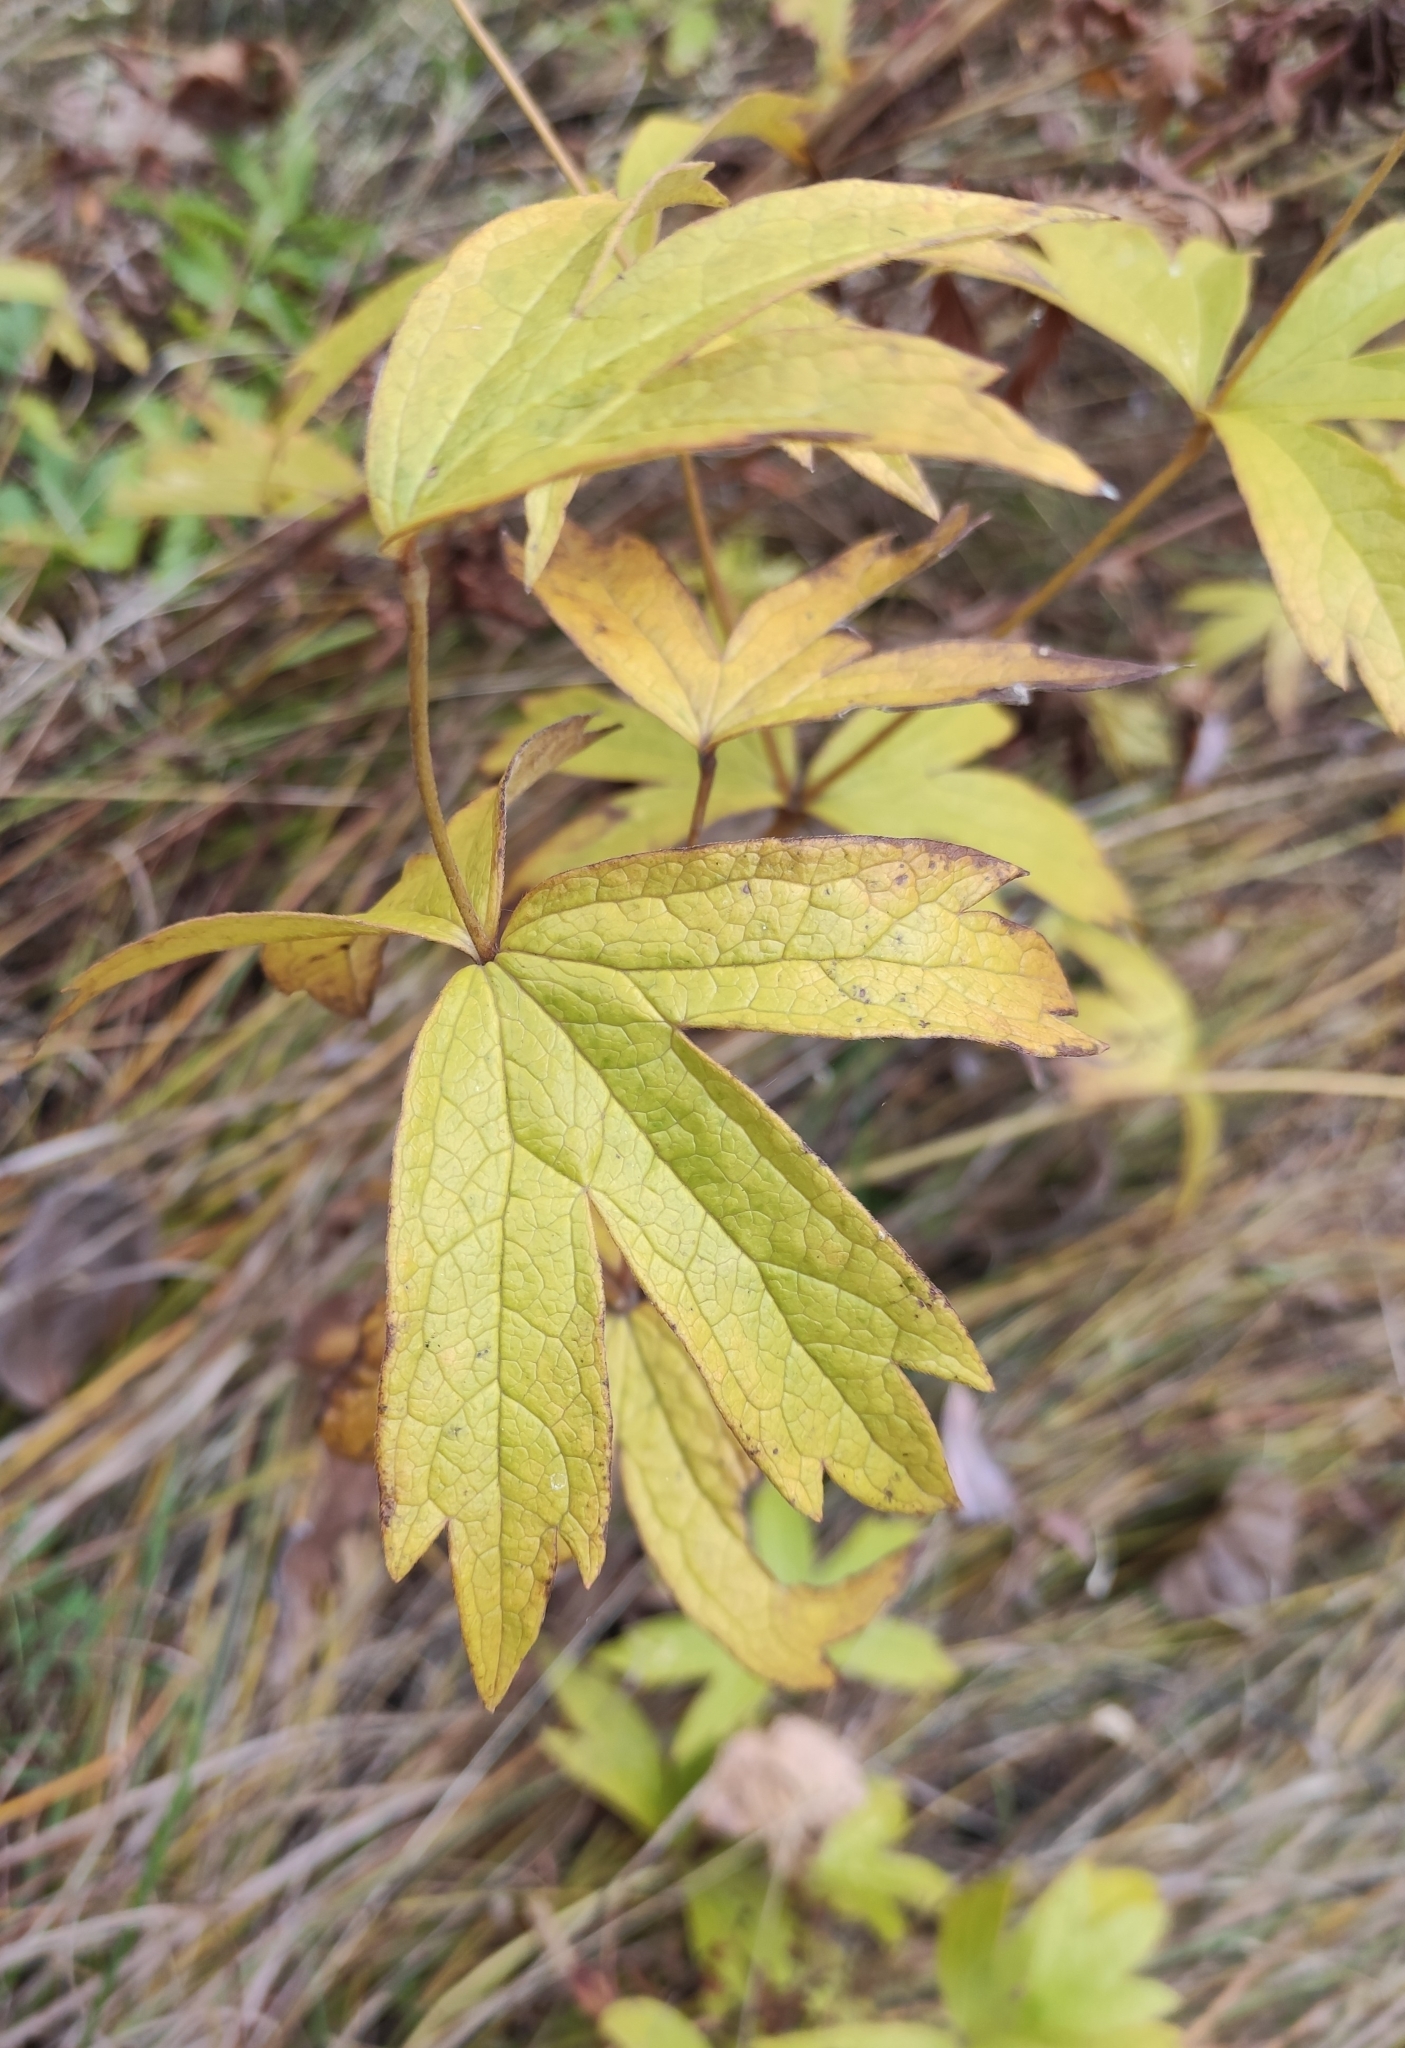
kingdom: Plantae
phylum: Tracheophyta
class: Magnoliopsida
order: Ranunculales
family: Ranunculaceae
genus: Anemonastrum
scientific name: Anemonastrum dichotomum
